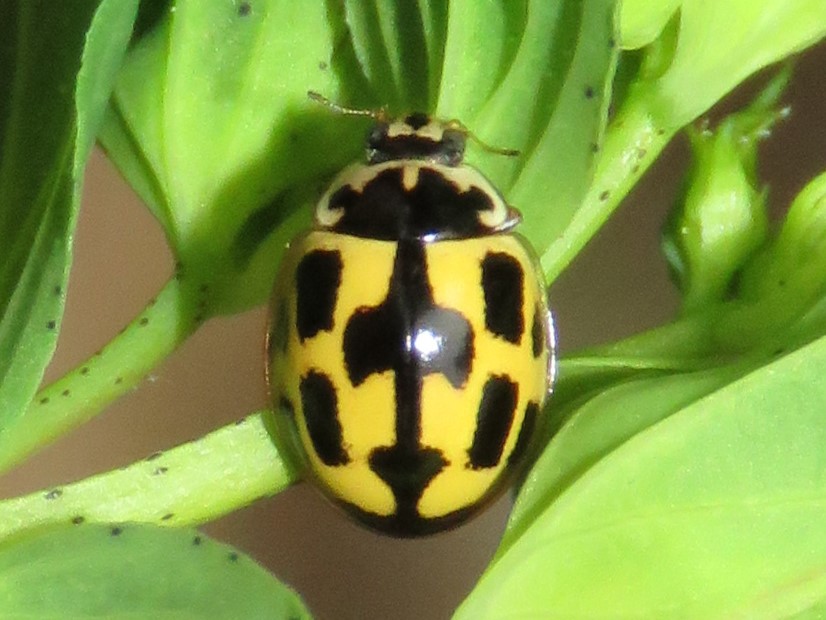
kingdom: Animalia
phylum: Arthropoda
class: Insecta
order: Coleoptera
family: Coccinellidae
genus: Propylaea
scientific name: Propylaea quatuordecimpunctata
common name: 14-spotted ladybird beetle
